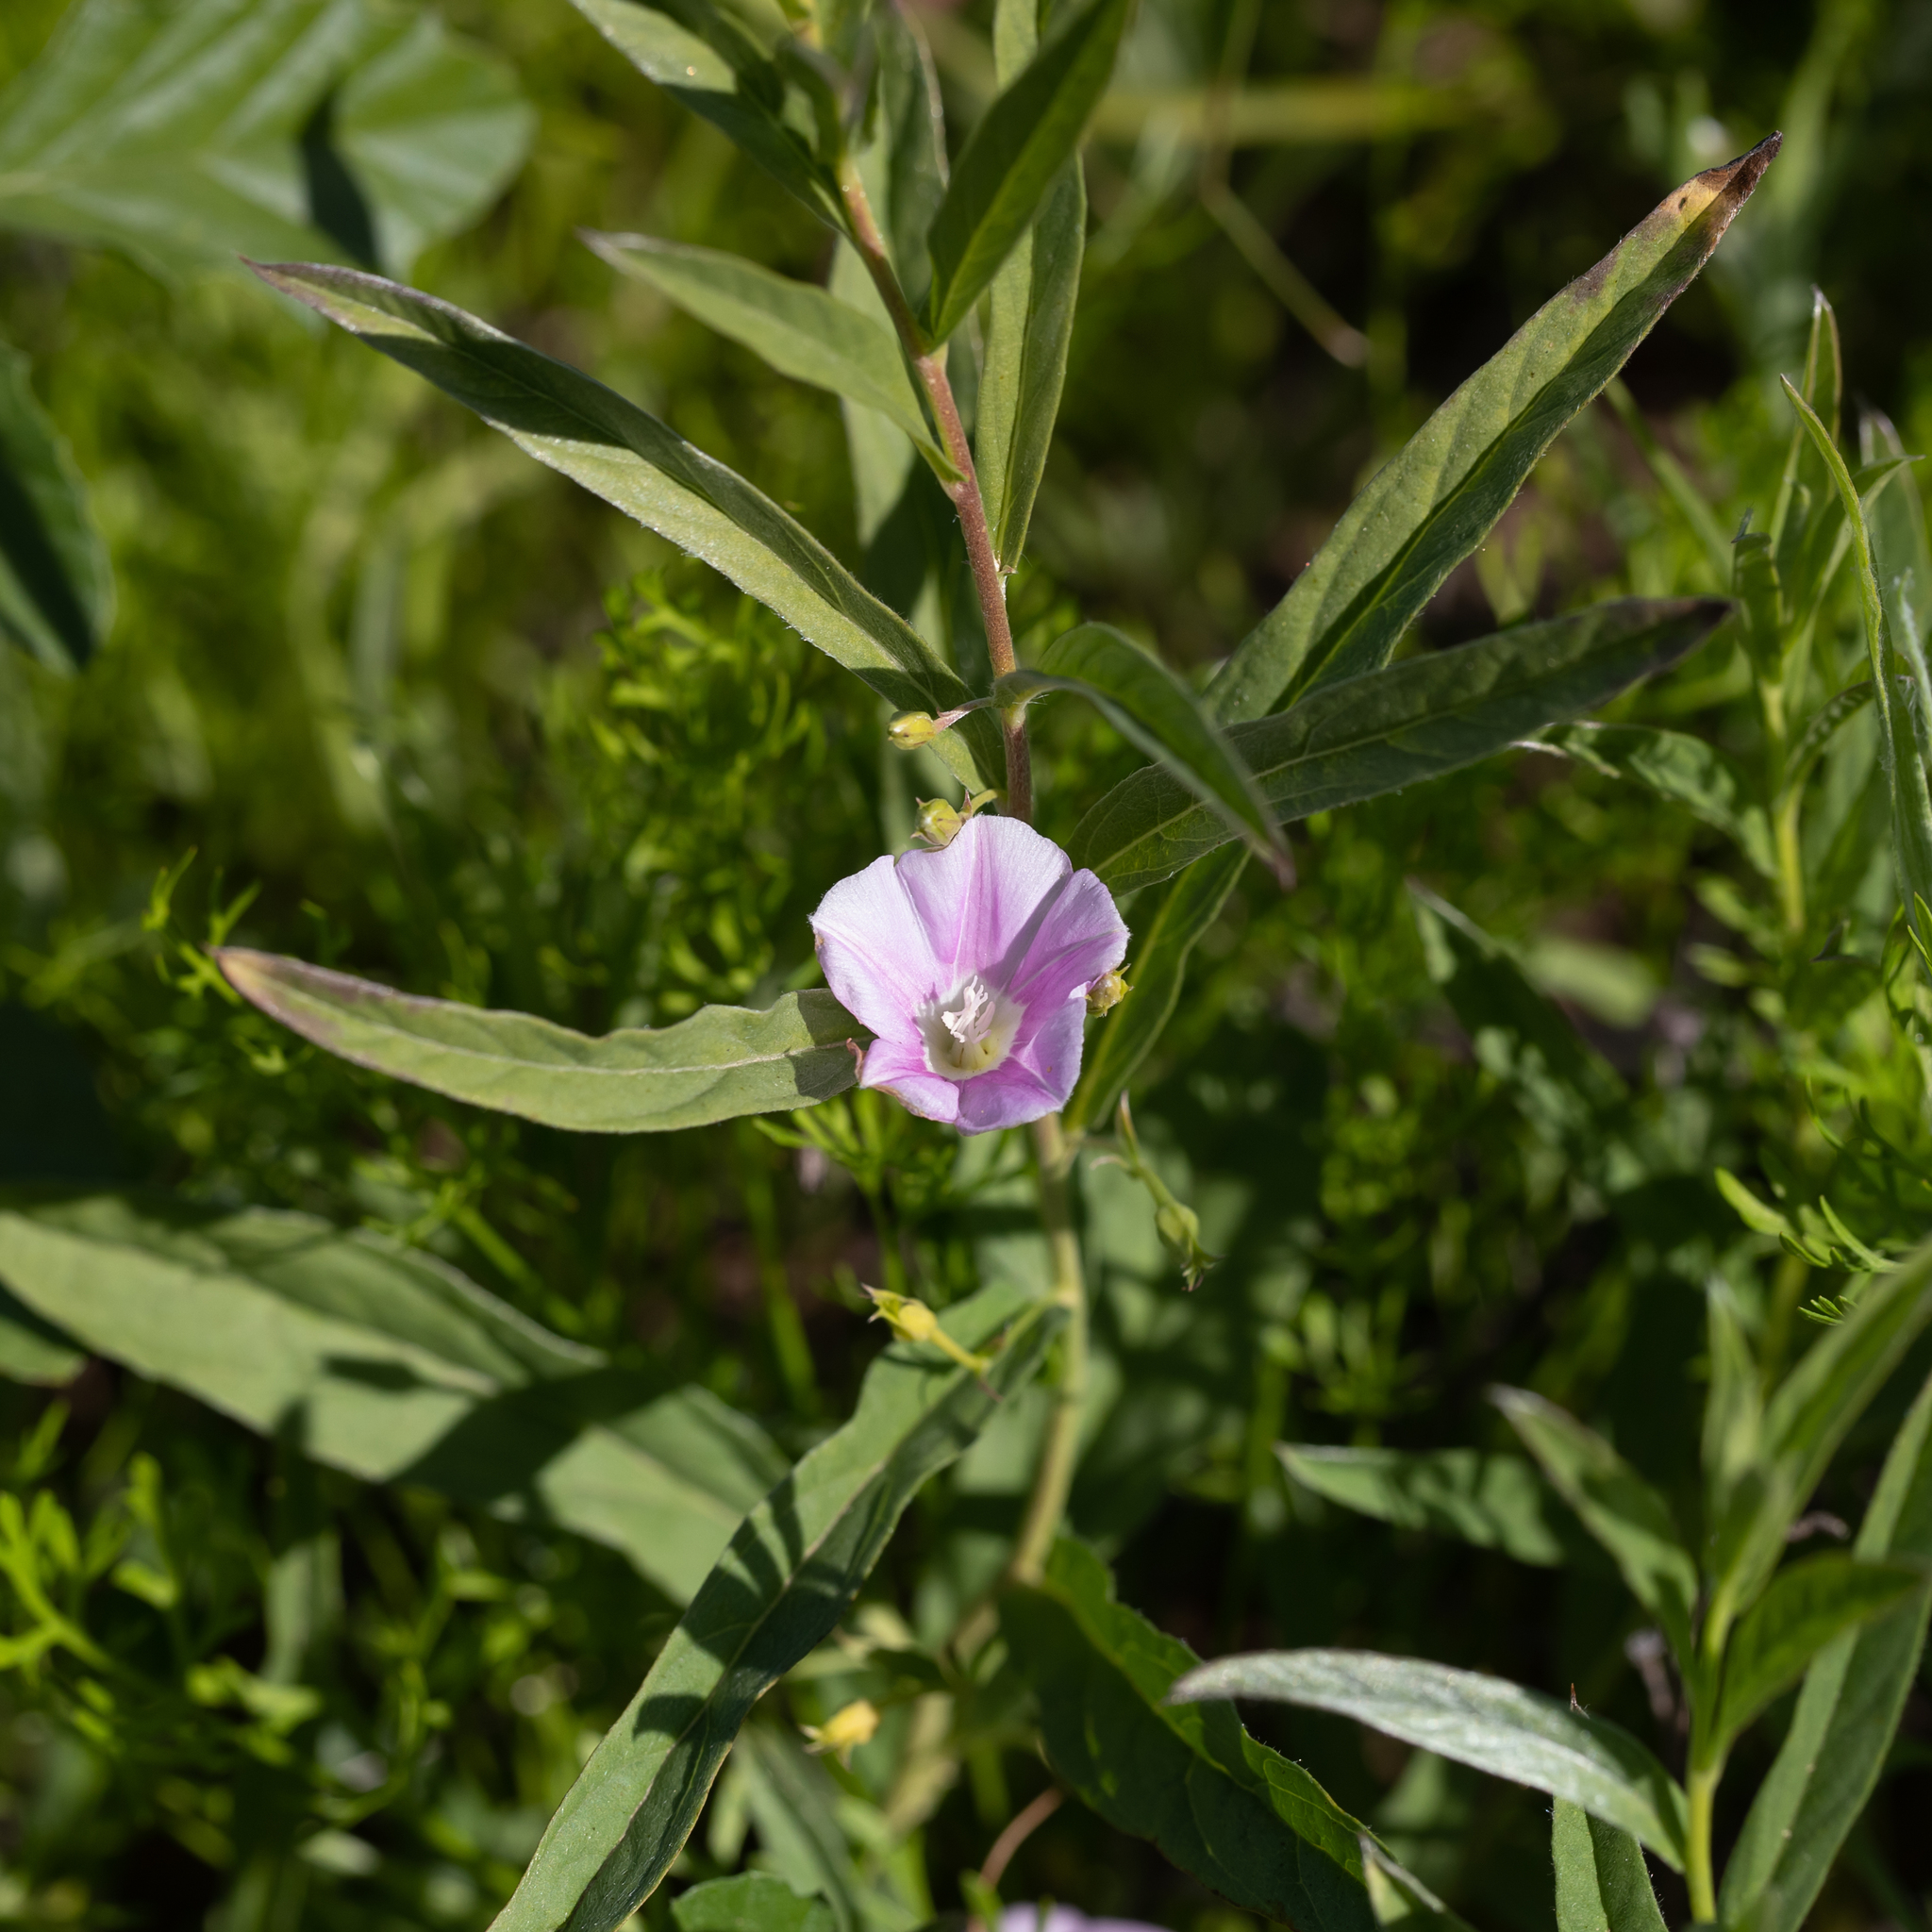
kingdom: Plantae
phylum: Tracheophyta
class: Magnoliopsida
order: Solanales
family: Convolvulaceae
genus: Polymeria
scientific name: Polymeria longifolia
